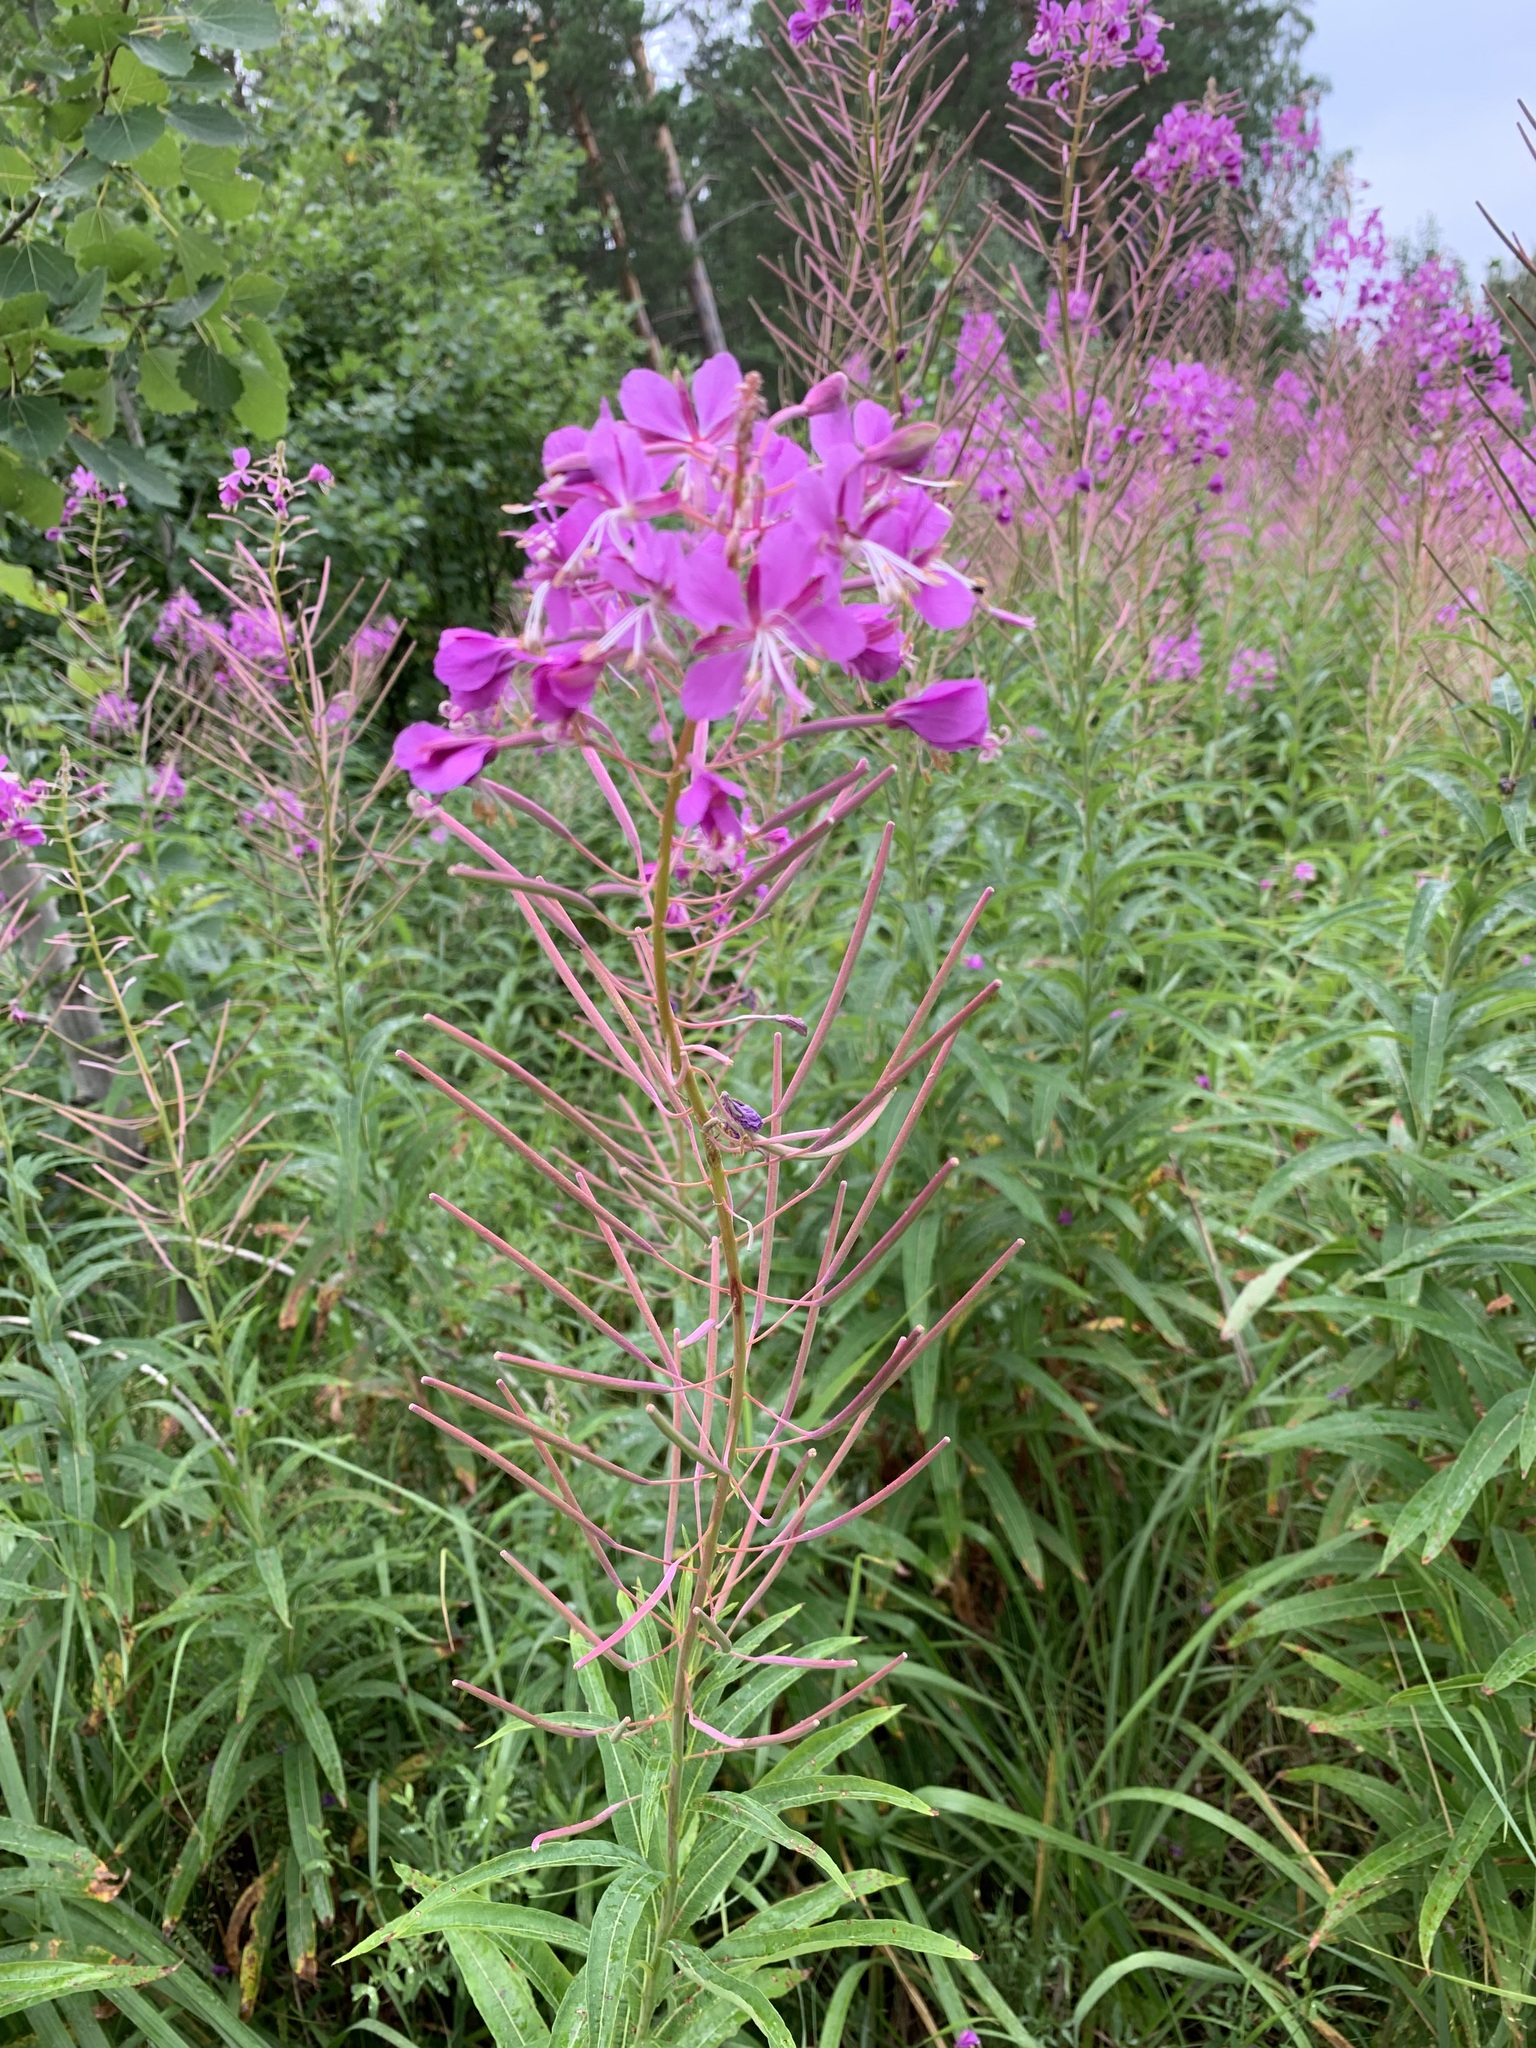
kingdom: Plantae
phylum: Tracheophyta
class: Magnoliopsida
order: Myrtales
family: Onagraceae
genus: Chamaenerion
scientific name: Chamaenerion angustifolium
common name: Fireweed
